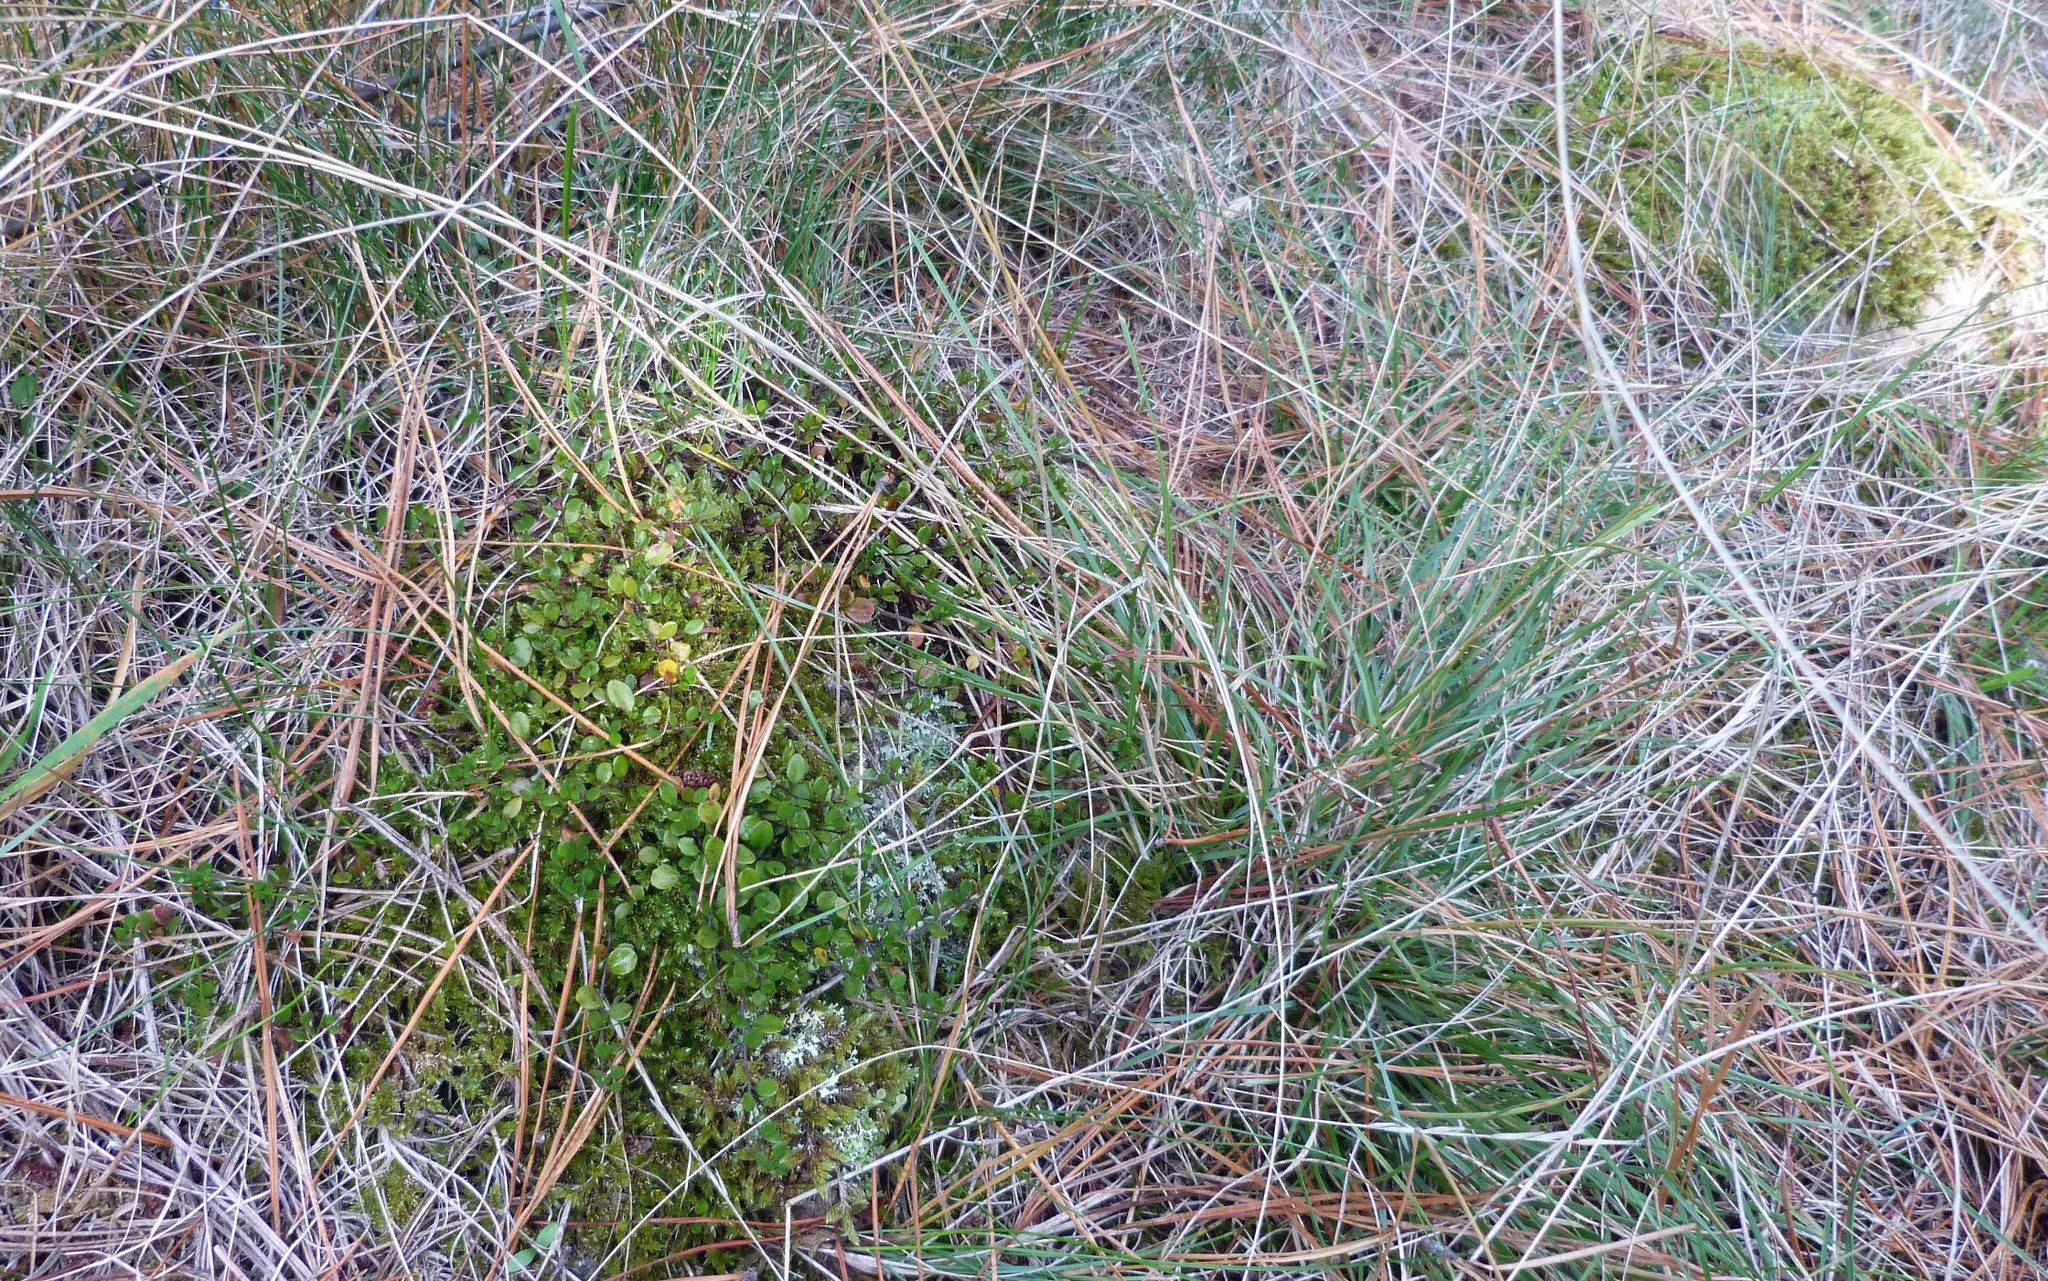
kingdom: Plantae
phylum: Tracheophyta
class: Magnoliopsida
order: Caryophyllales
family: Polygonaceae
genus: Muehlenbeckia
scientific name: Muehlenbeckia axillaris
